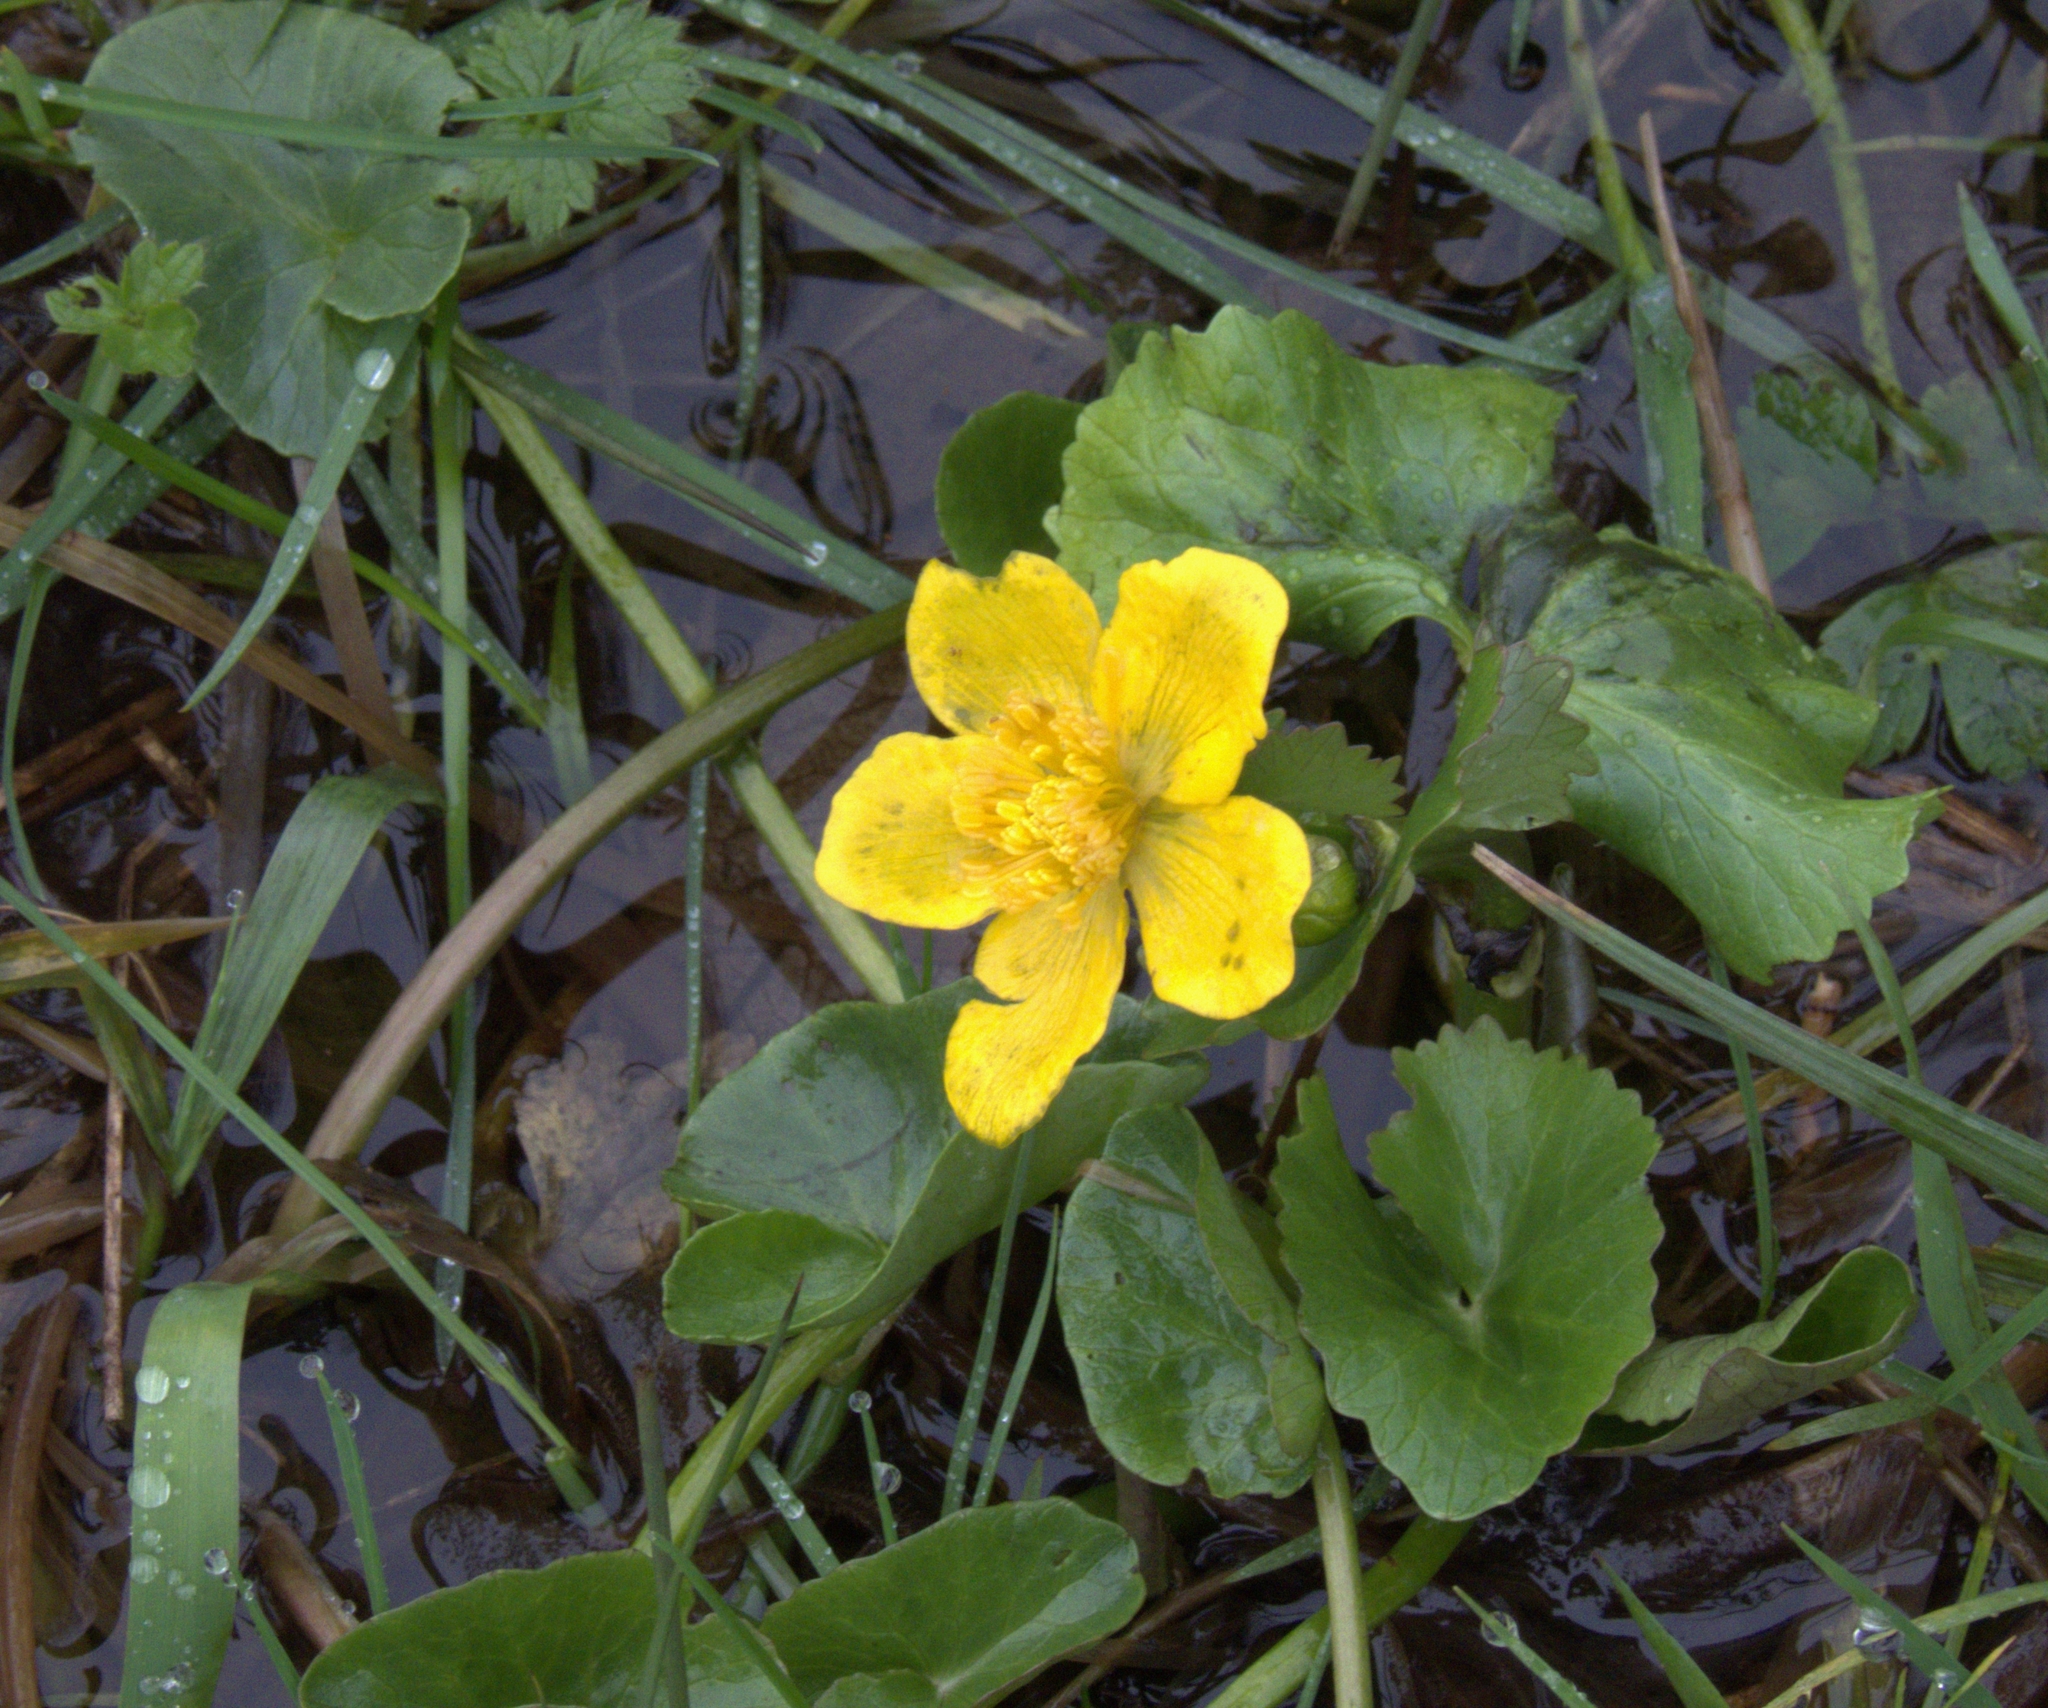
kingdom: Plantae
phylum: Tracheophyta
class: Magnoliopsida
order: Ranunculales
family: Ranunculaceae
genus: Caltha
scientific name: Caltha palustris
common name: Marsh marigold
